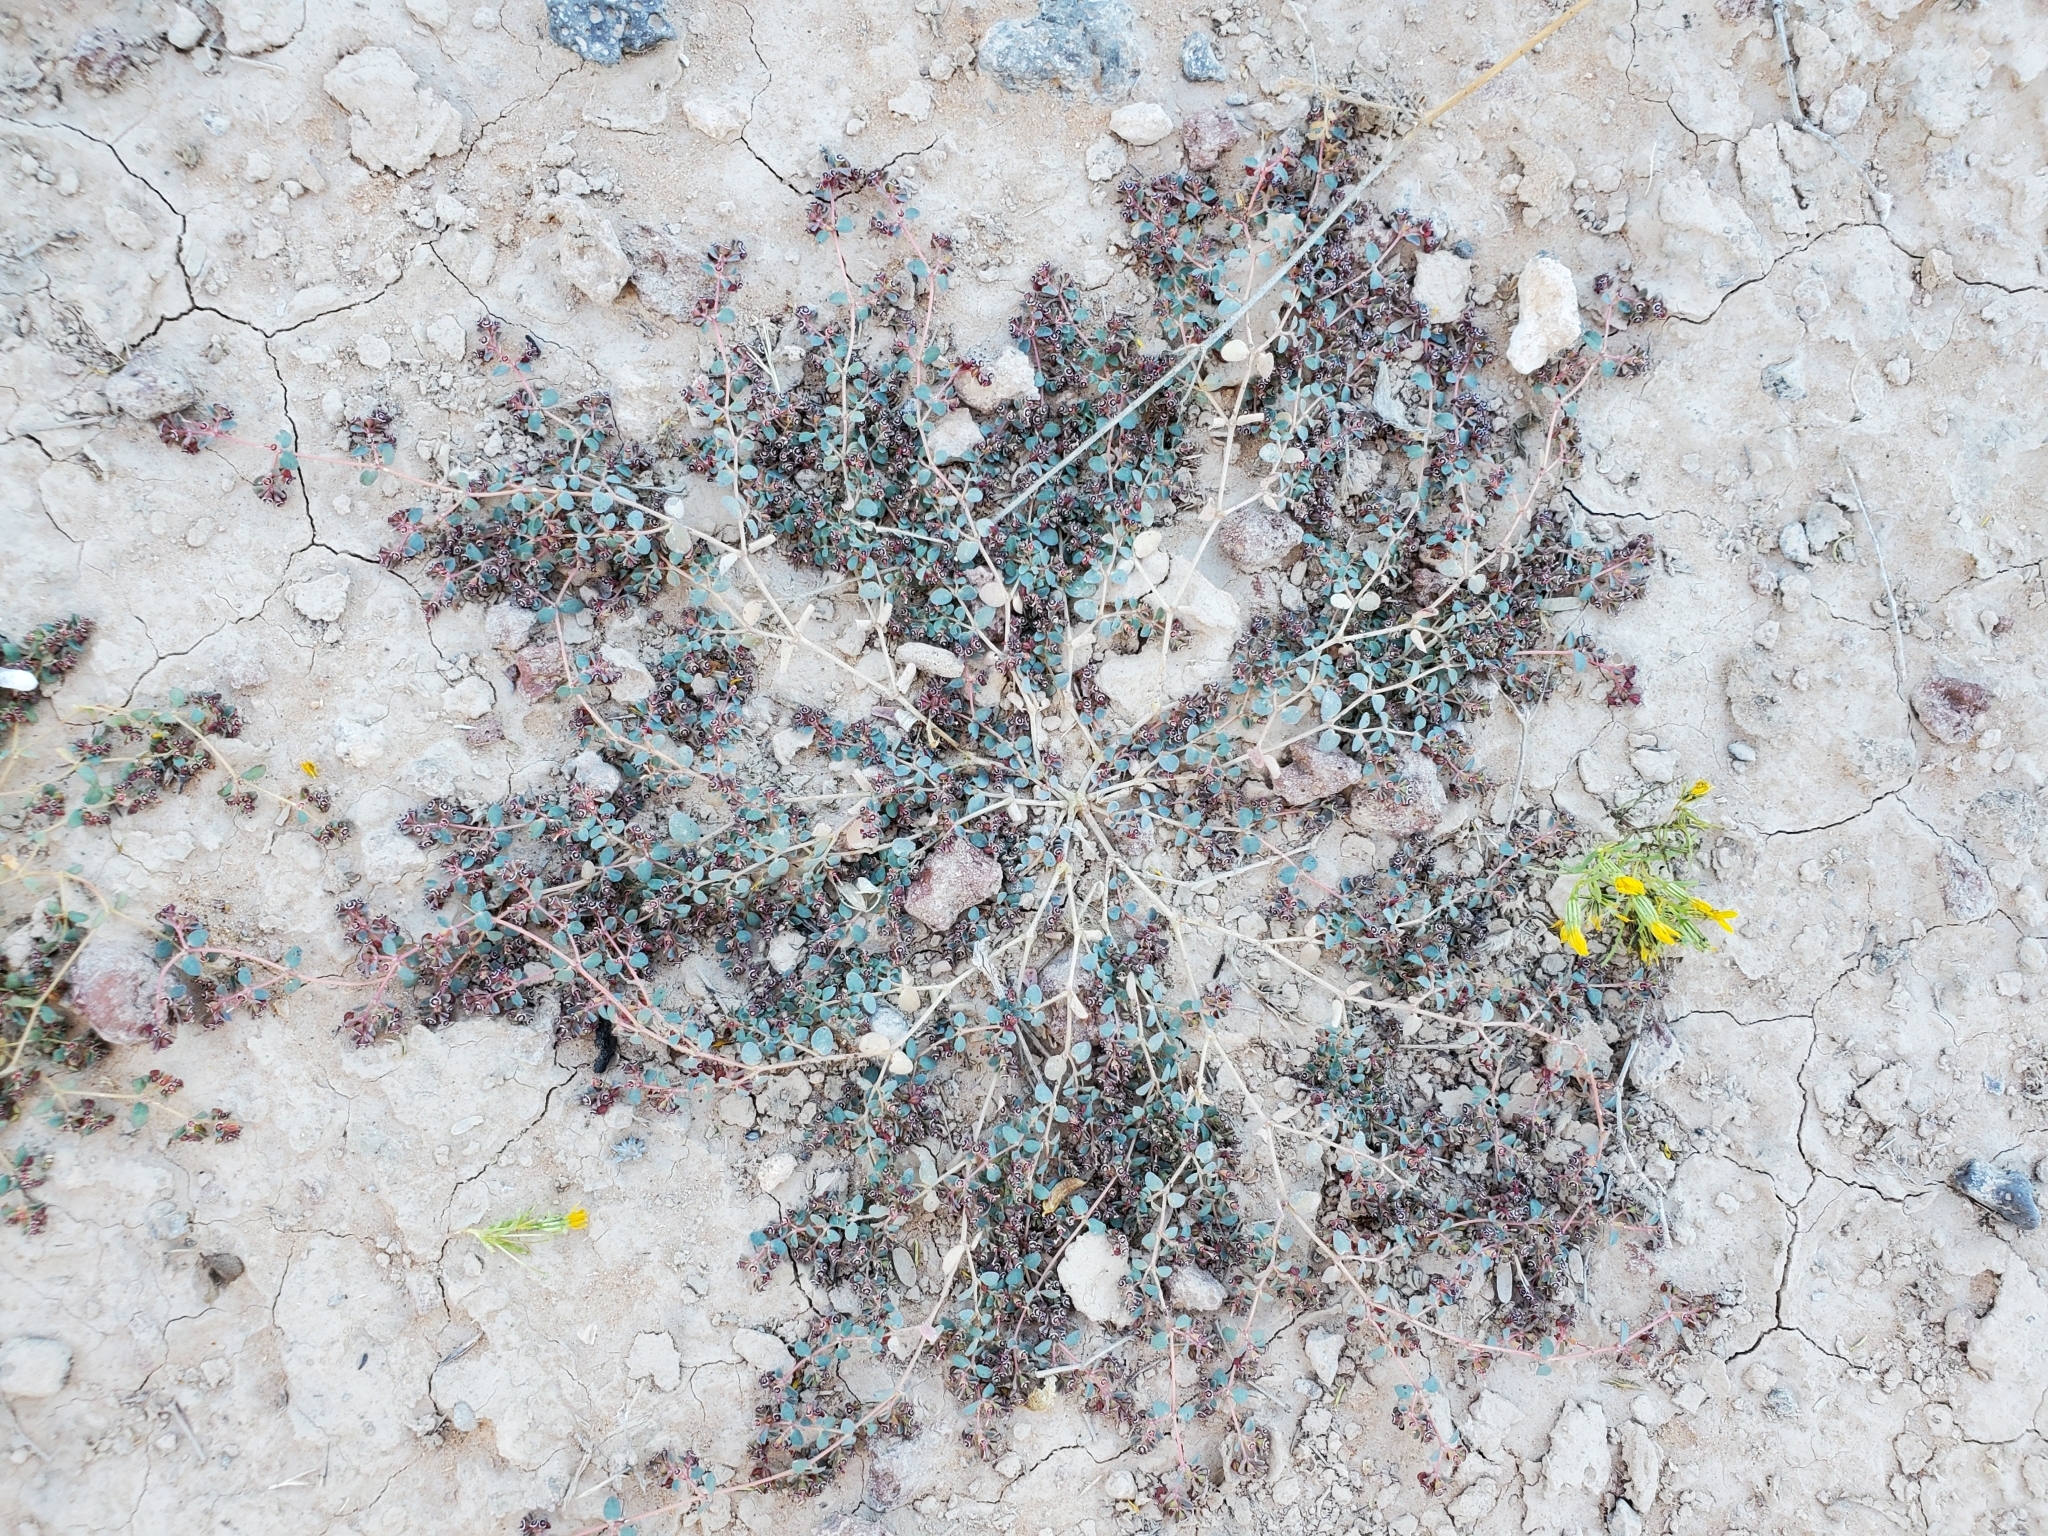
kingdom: Plantae
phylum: Tracheophyta
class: Magnoliopsida
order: Malpighiales
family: Euphorbiaceae
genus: Euphorbia
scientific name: Euphorbia polycarpa
